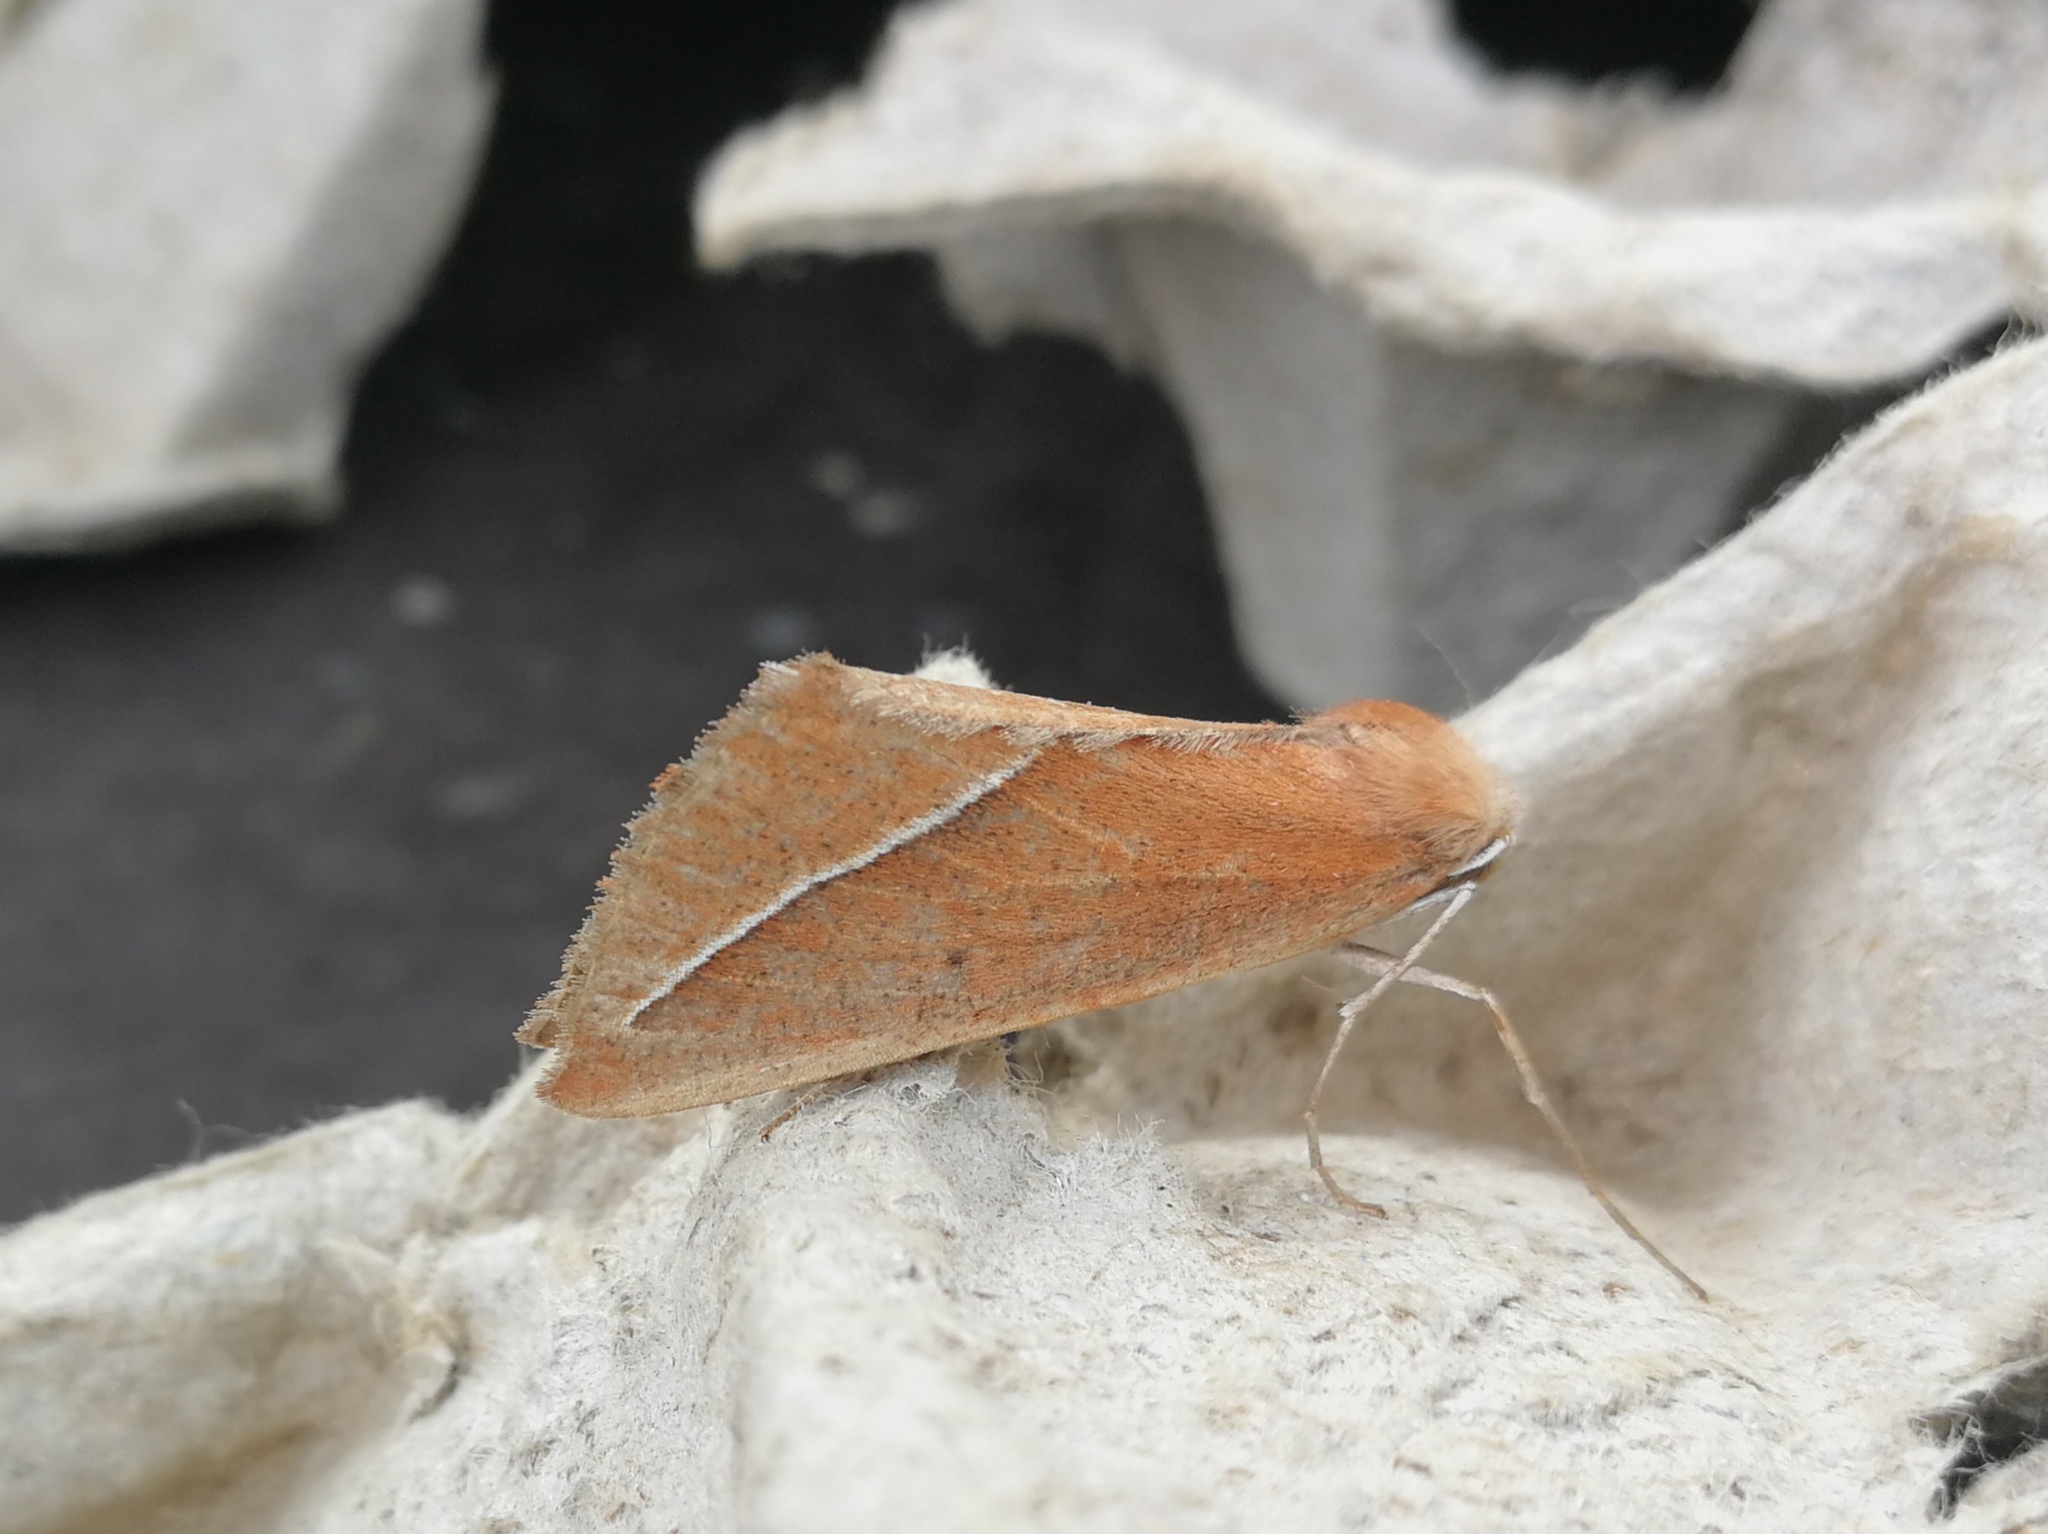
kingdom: Animalia
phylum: Arthropoda
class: Insecta
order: Lepidoptera
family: Geometridae
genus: Compsoptera
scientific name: Compsoptera opacaria
